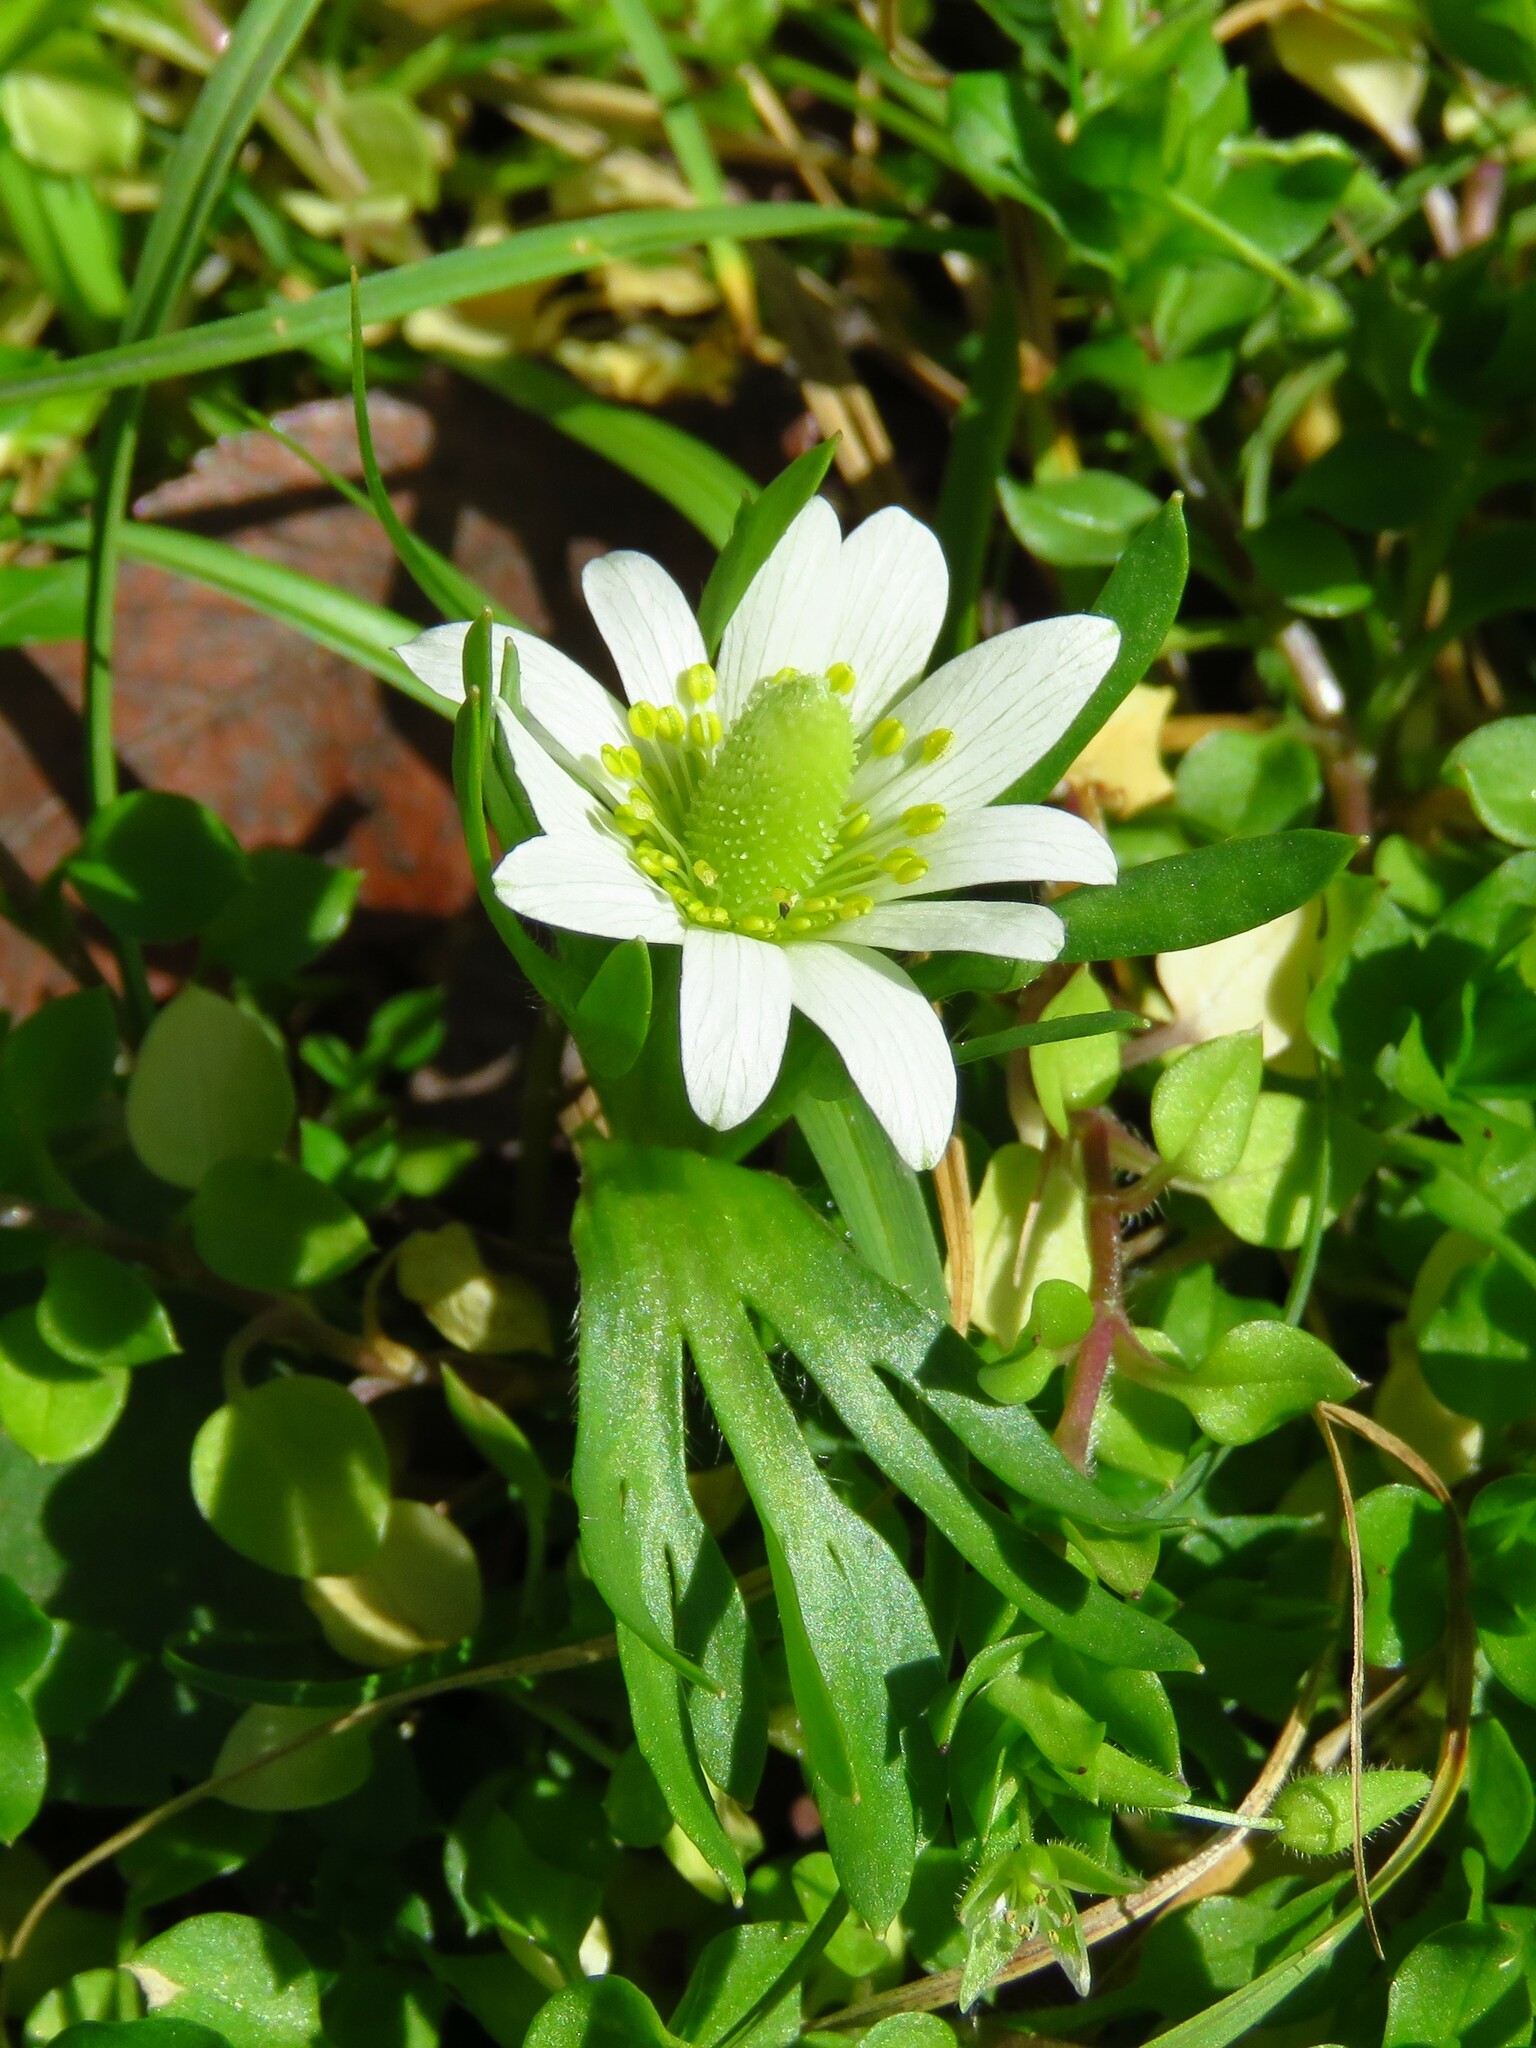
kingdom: Plantae
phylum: Tracheophyta
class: Magnoliopsida
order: Ranunculales
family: Ranunculaceae
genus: Anemone
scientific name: Anemone berlandieri
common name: Ten-petal anemone
